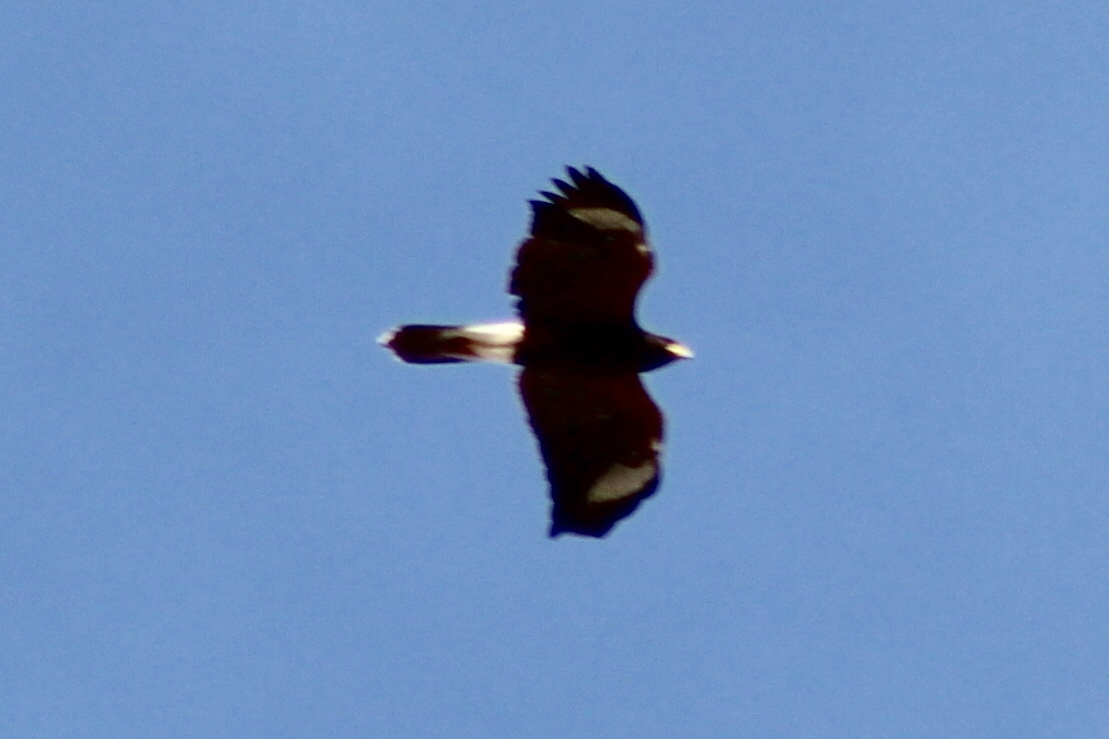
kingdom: Animalia
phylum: Chordata
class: Aves
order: Accipitriformes
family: Accipitridae
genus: Parabuteo
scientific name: Parabuteo unicinctus
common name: Harris's hawk
